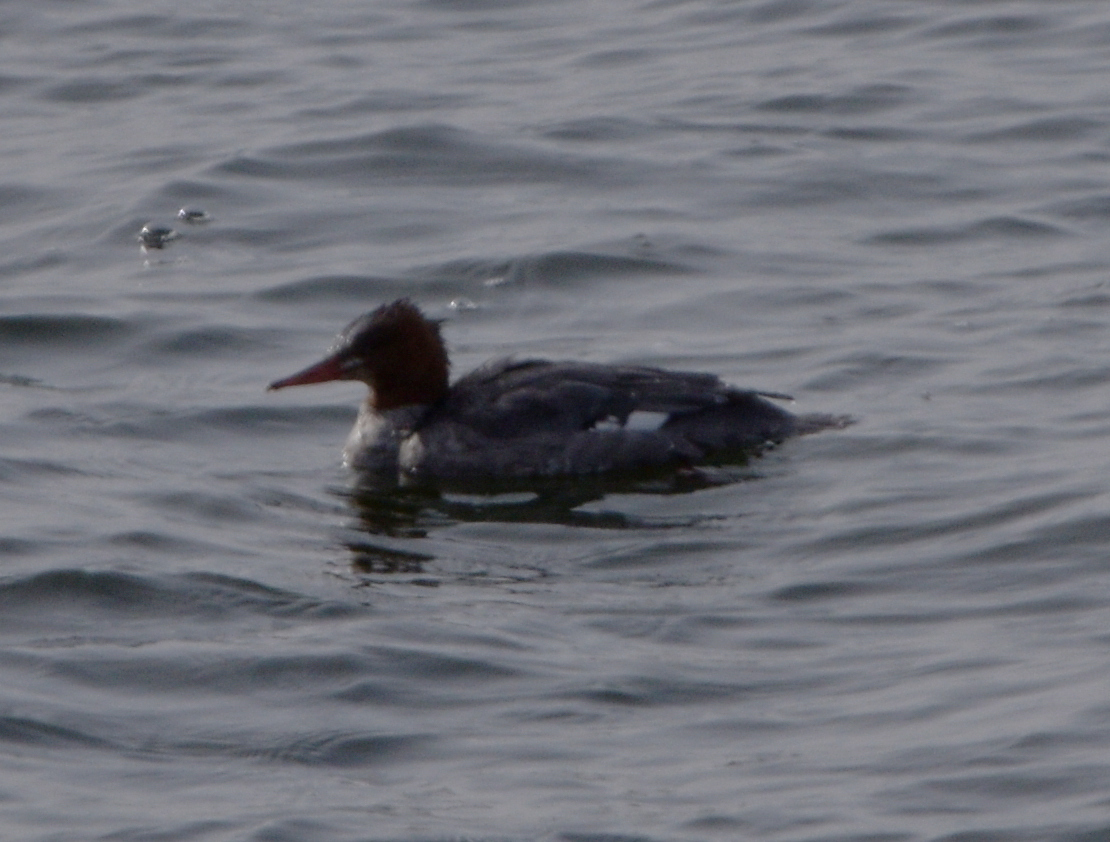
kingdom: Animalia
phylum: Chordata
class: Aves
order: Anseriformes
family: Anatidae
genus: Mergus
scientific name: Mergus merganser
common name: Common merganser
